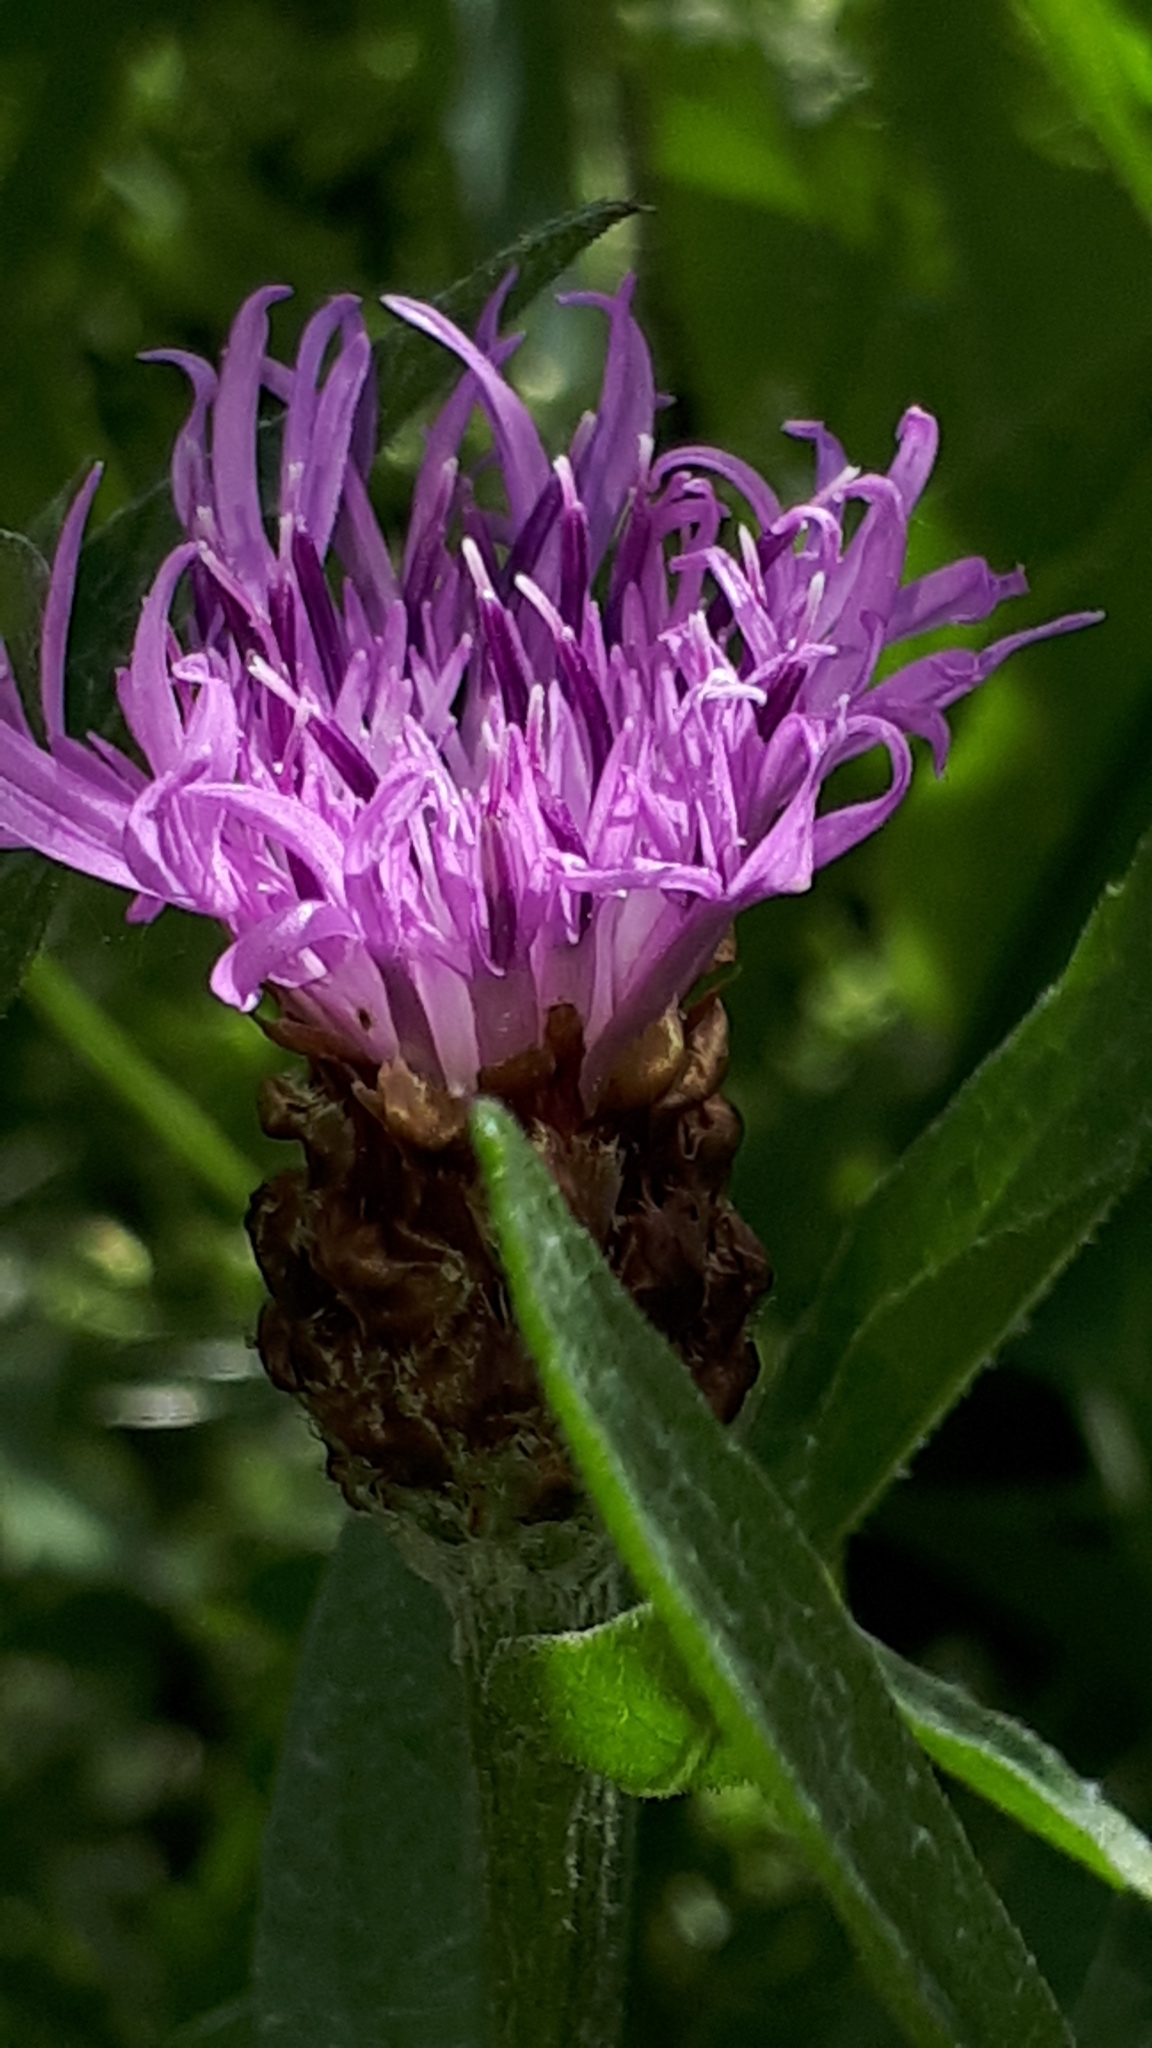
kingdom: Plantae
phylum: Tracheophyta
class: Magnoliopsida
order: Asterales
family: Asteraceae
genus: Centaurea
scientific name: Centaurea jacea
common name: Brown knapweed
